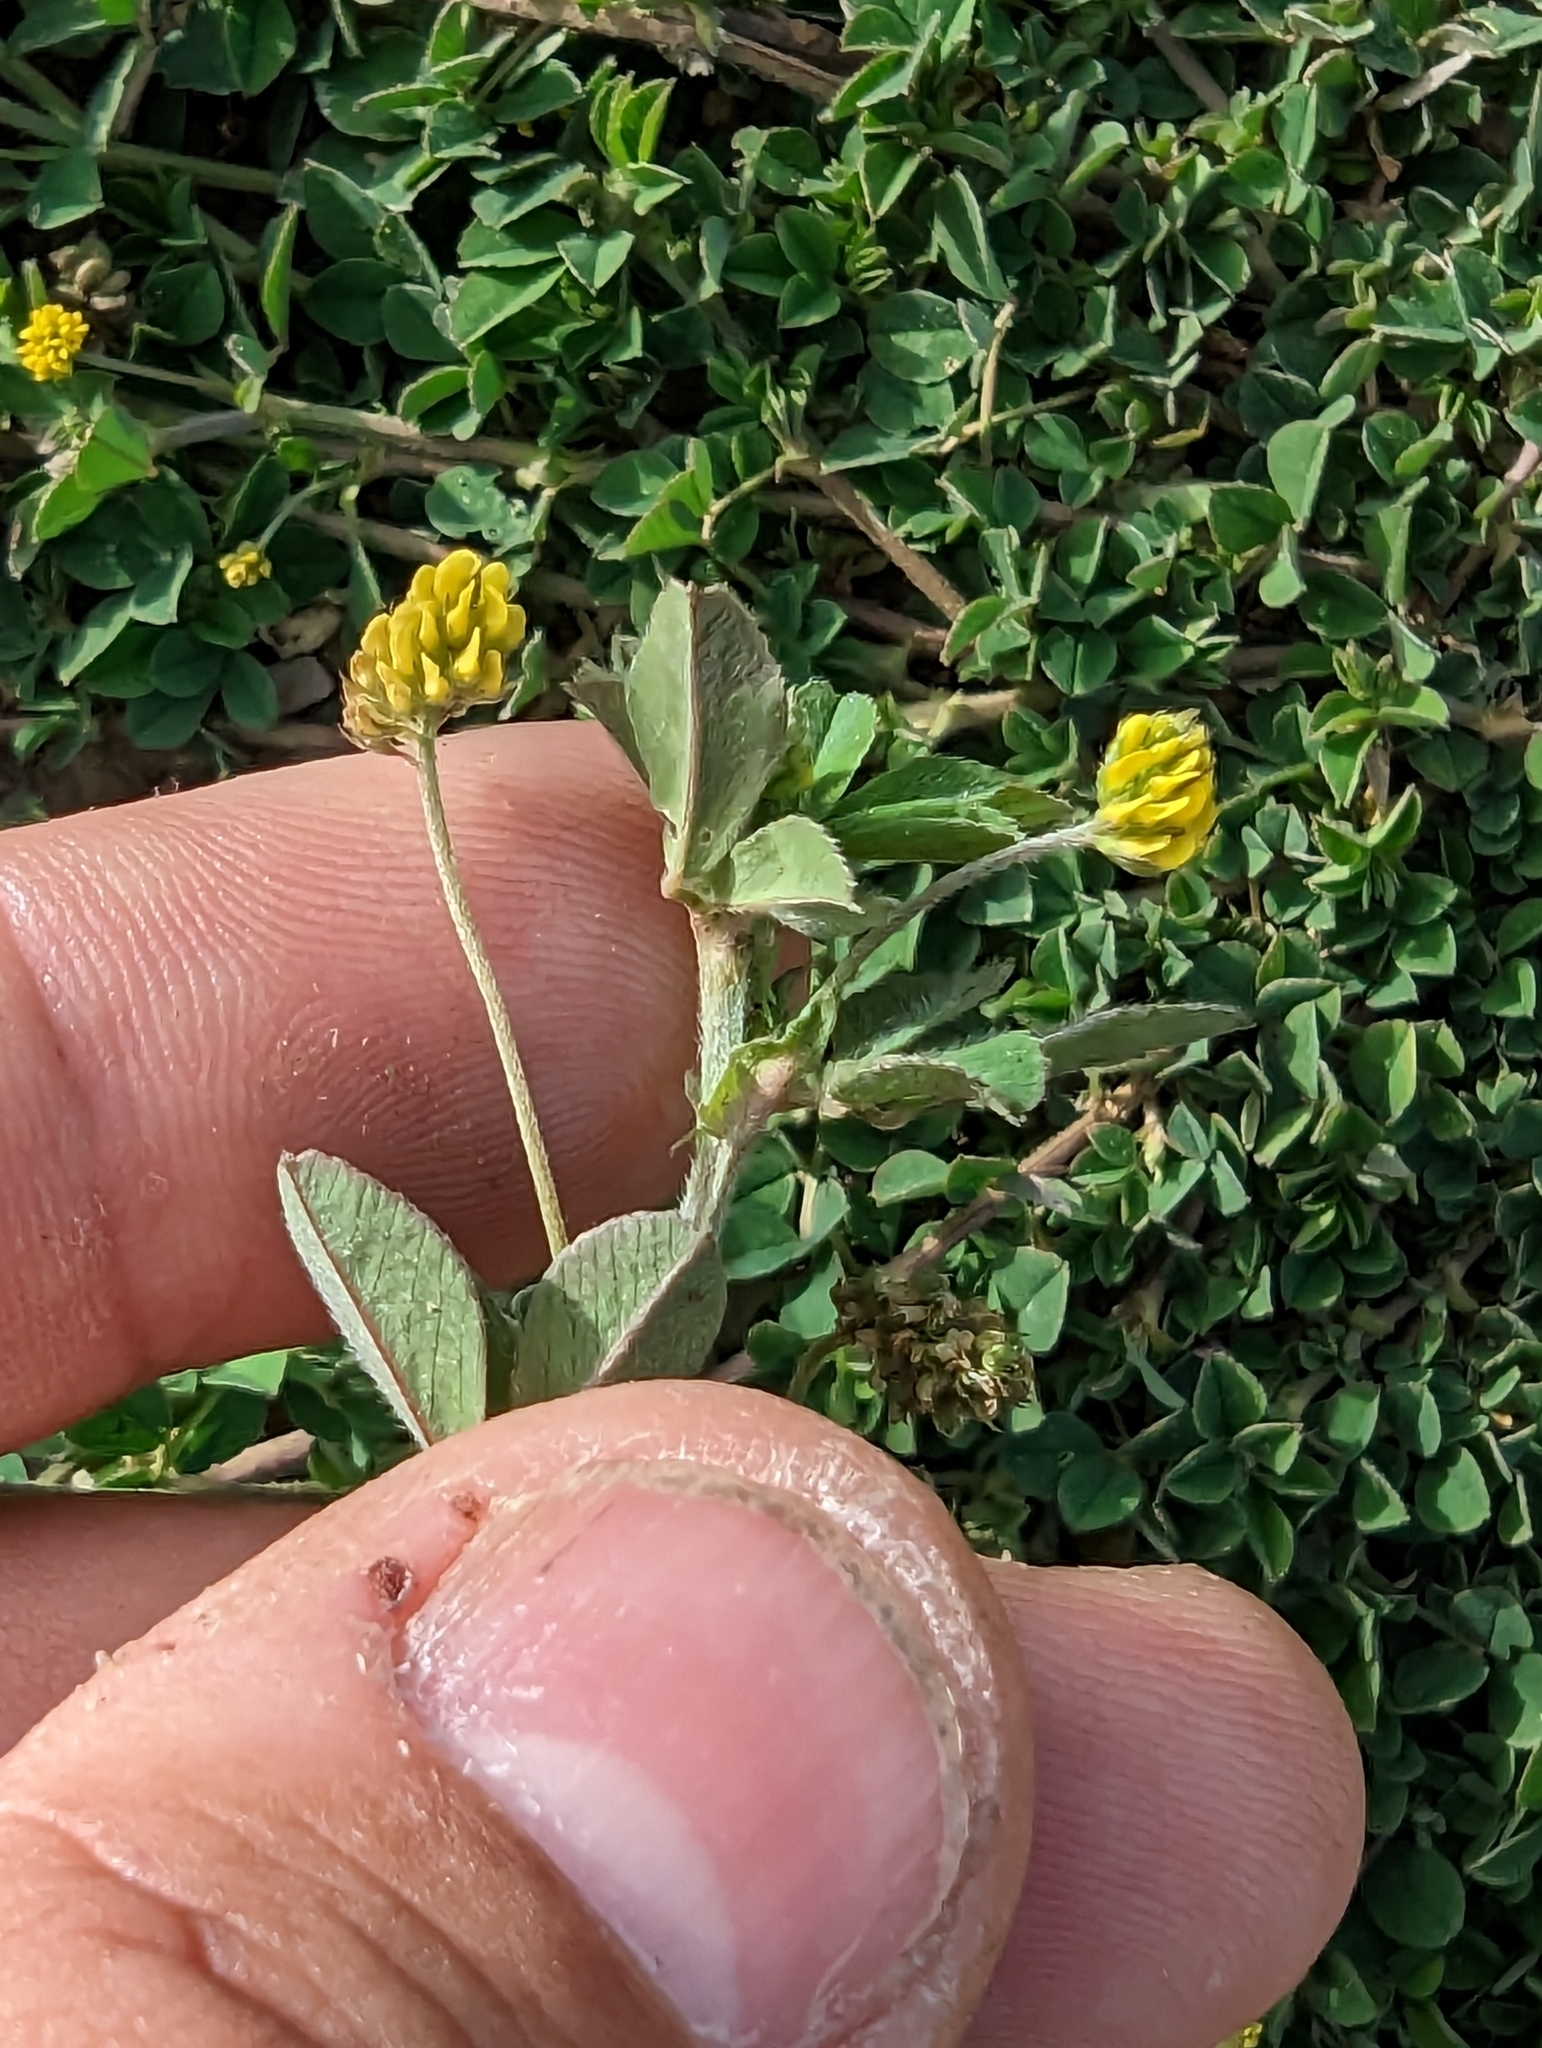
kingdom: Plantae
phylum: Tracheophyta
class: Magnoliopsida
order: Fabales
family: Fabaceae
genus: Medicago
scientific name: Medicago lupulina
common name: Black medick
